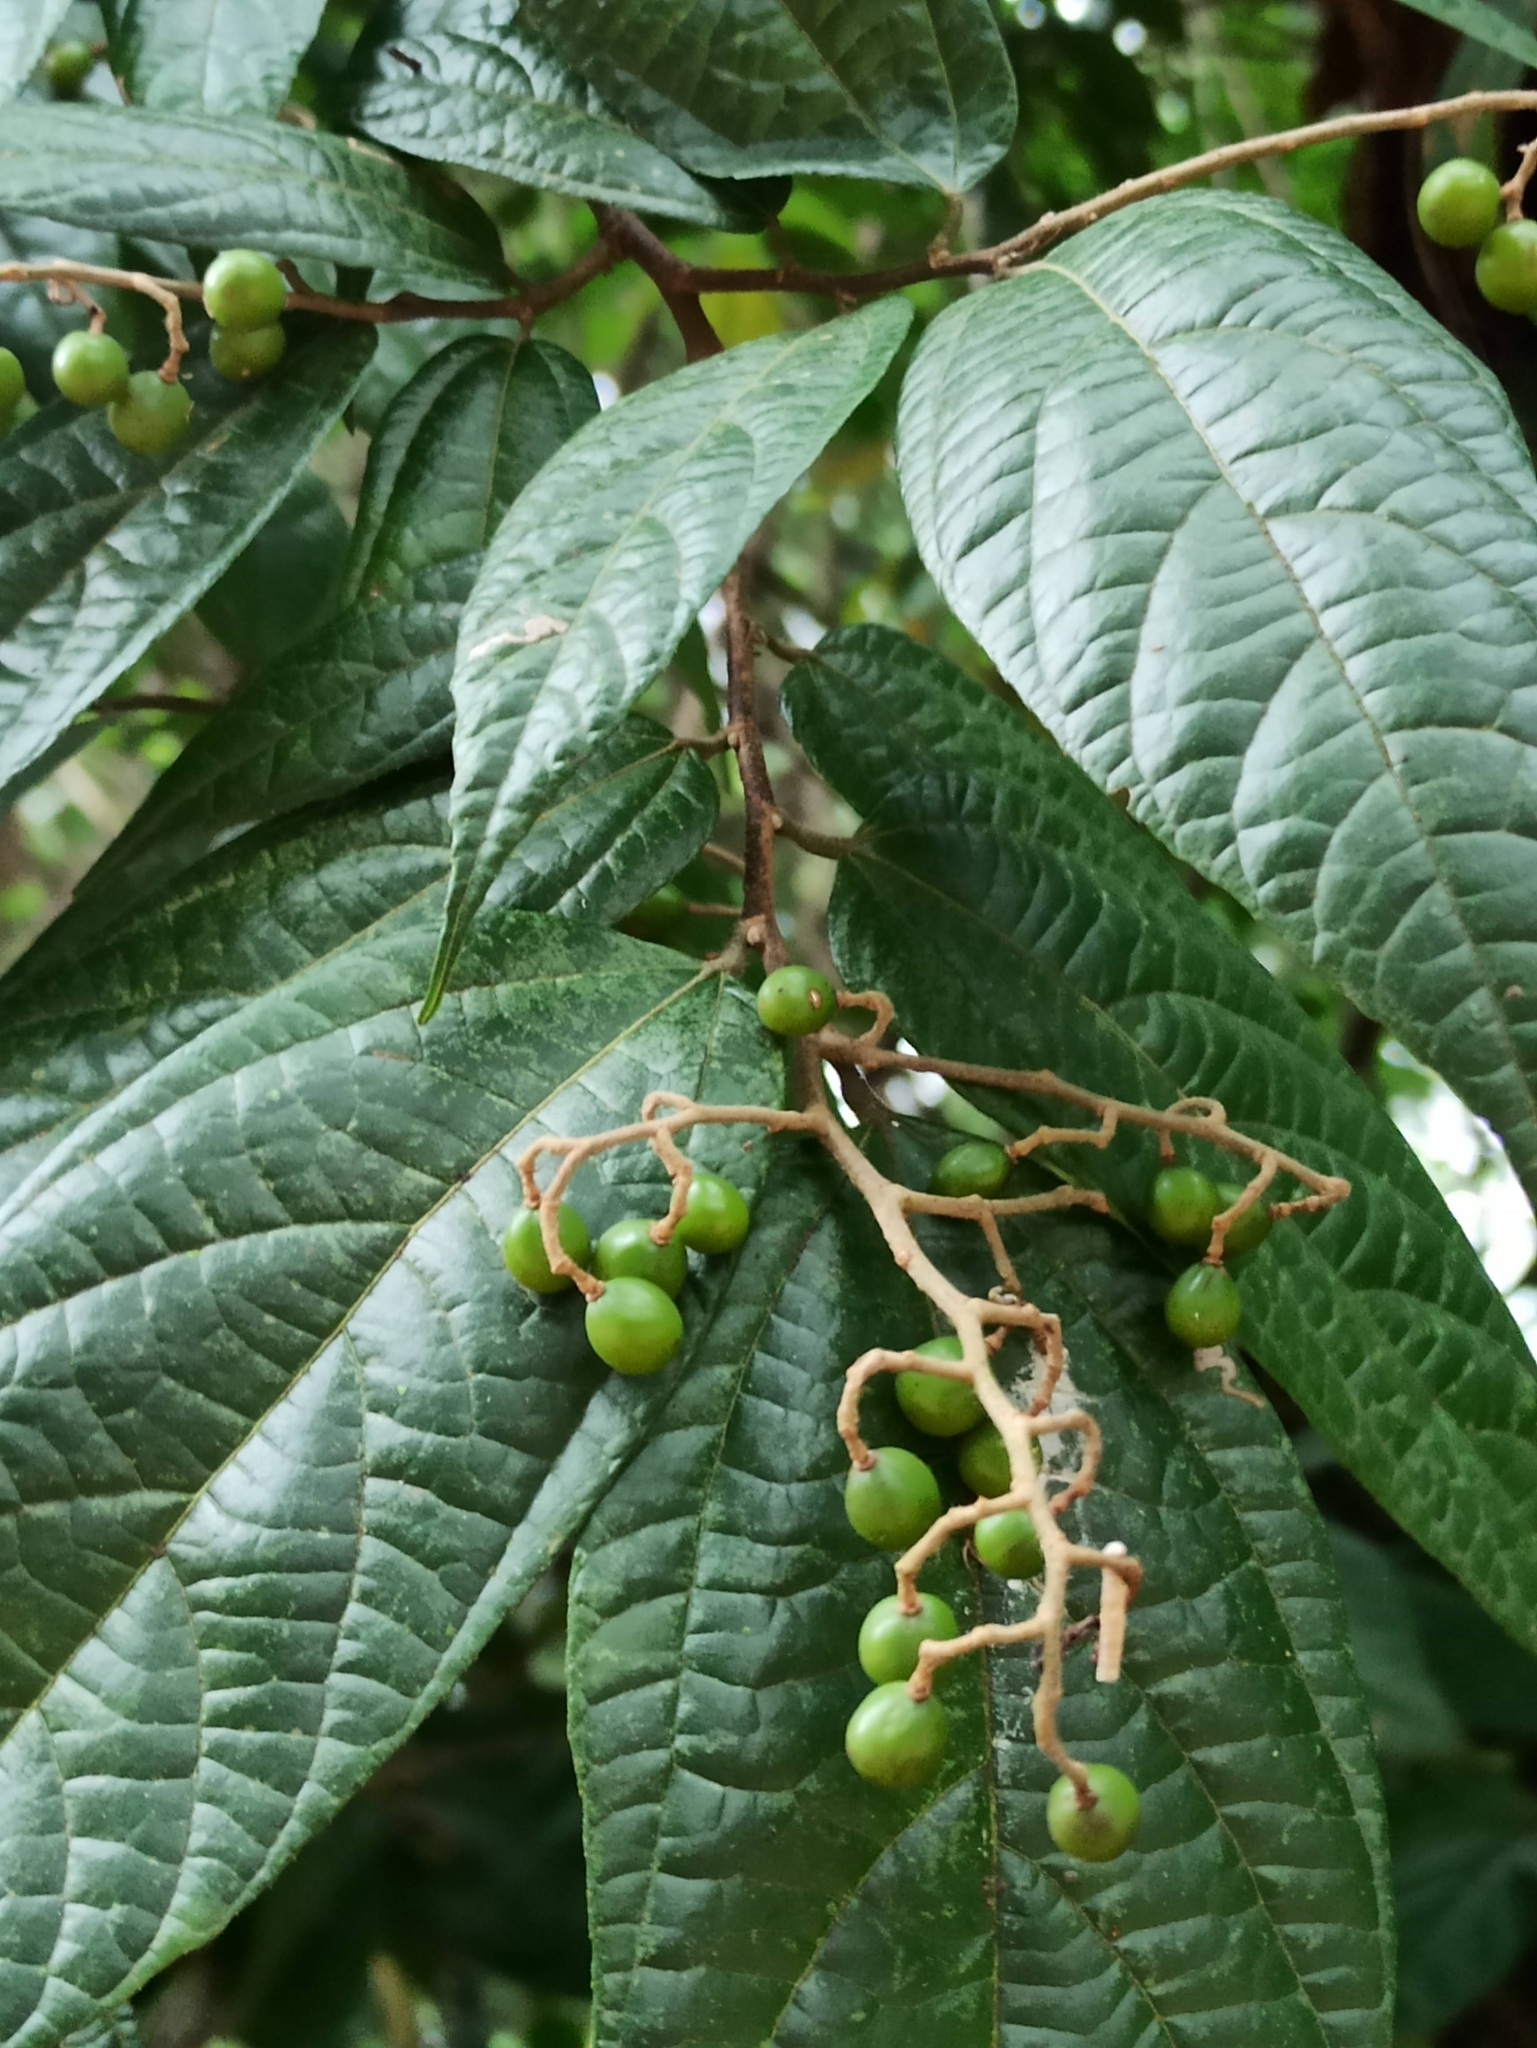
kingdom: Plantae
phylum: Tracheophyta
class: Magnoliopsida
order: Malvales
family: Malvaceae
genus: Microcos
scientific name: Microcos paniculata
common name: Microcos
